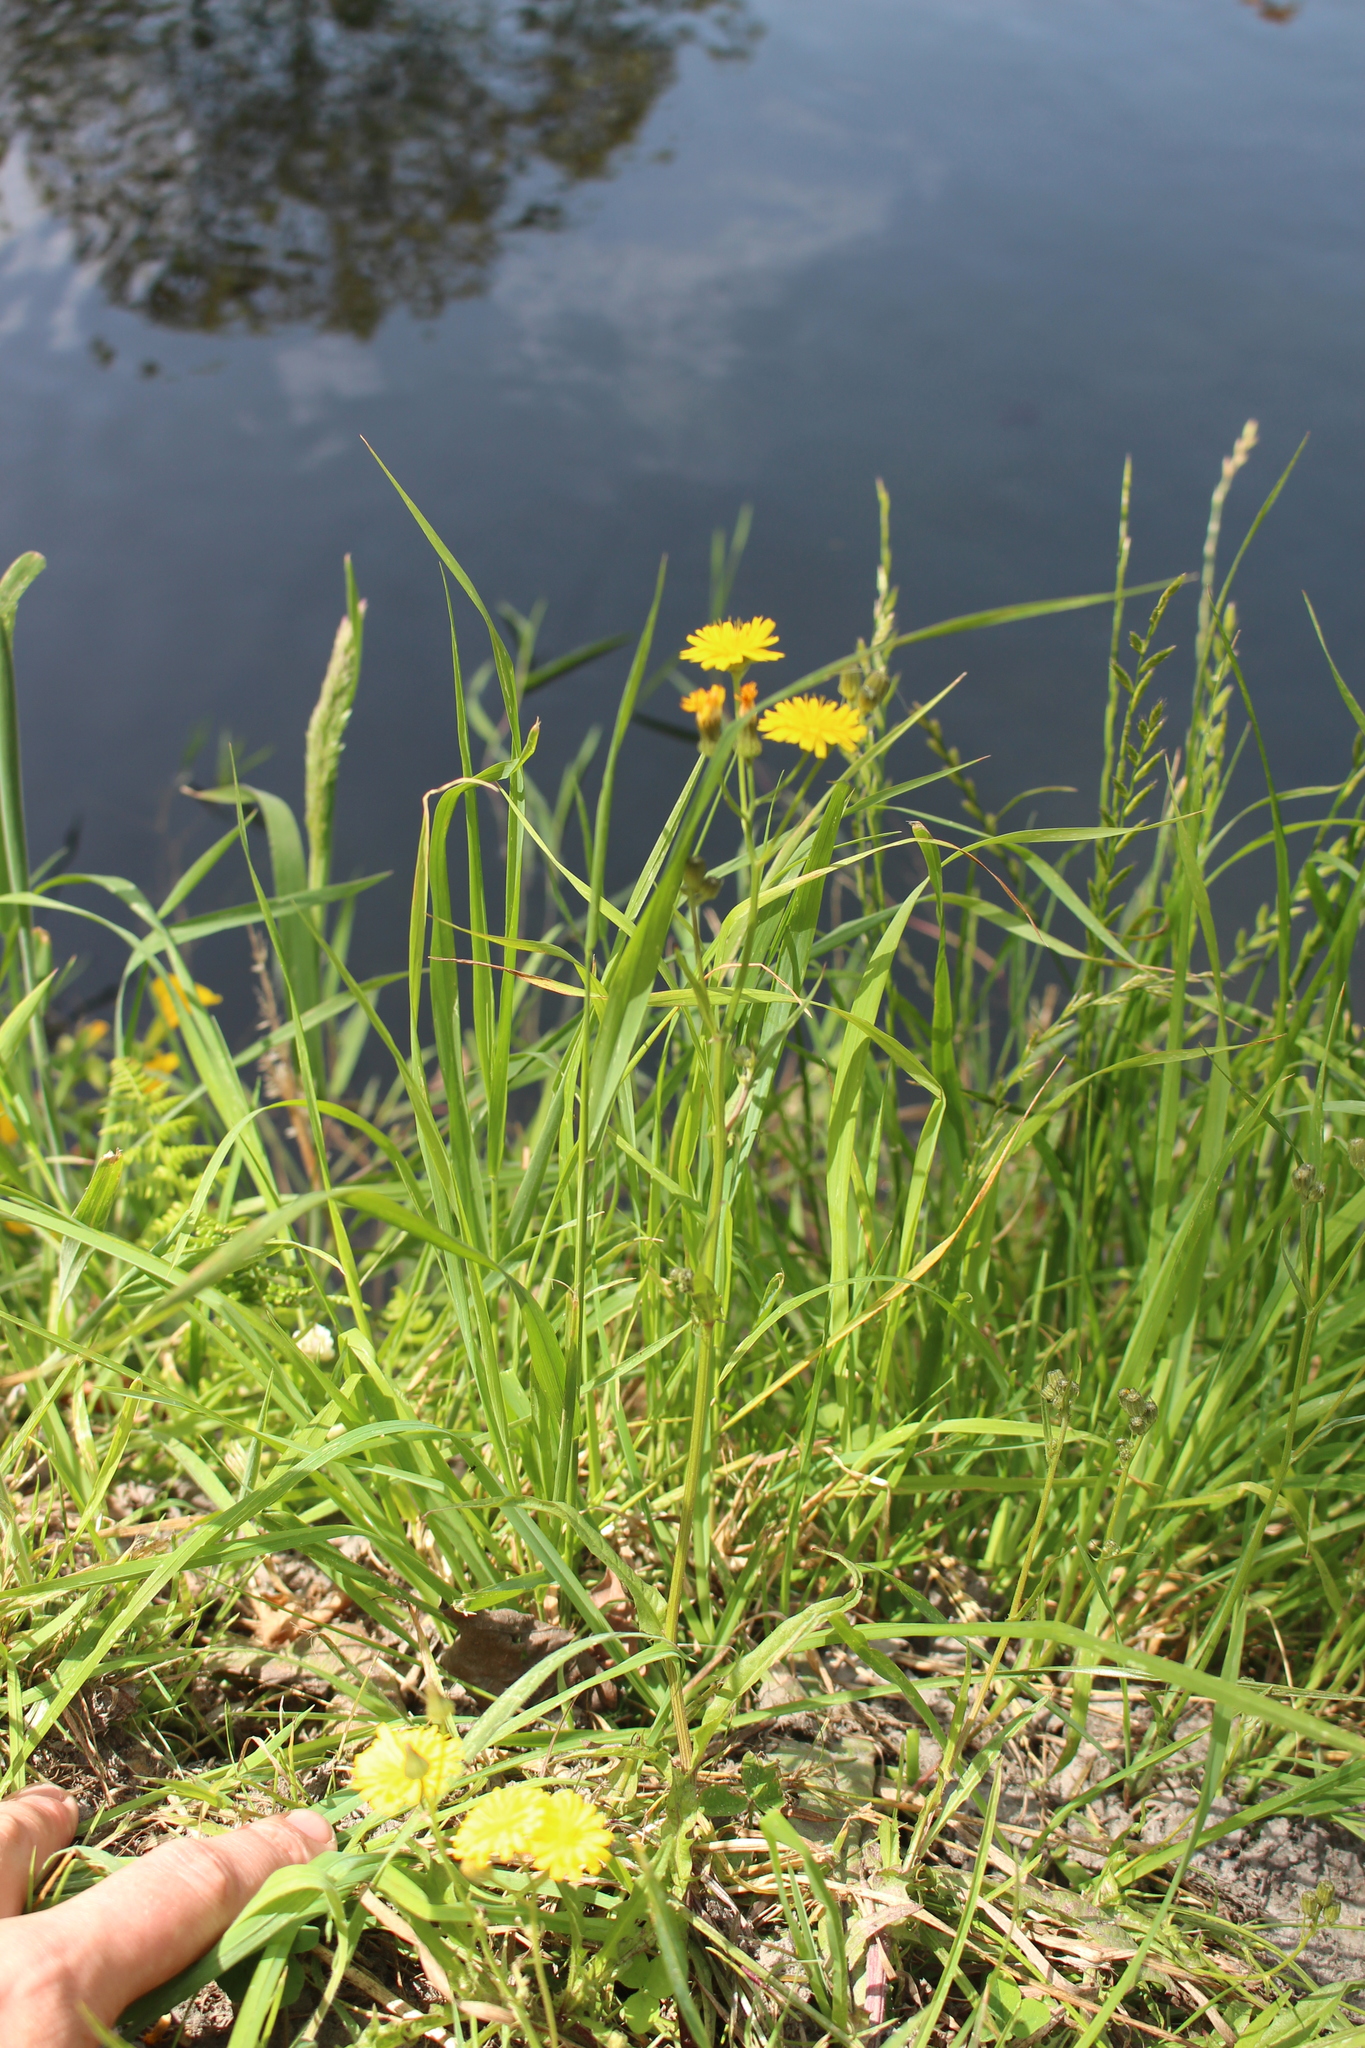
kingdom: Plantae
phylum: Tracheophyta
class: Magnoliopsida
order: Asterales
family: Asteraceae
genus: Crepis
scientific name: Crepis capillaris
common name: Smooth hawksbeard
